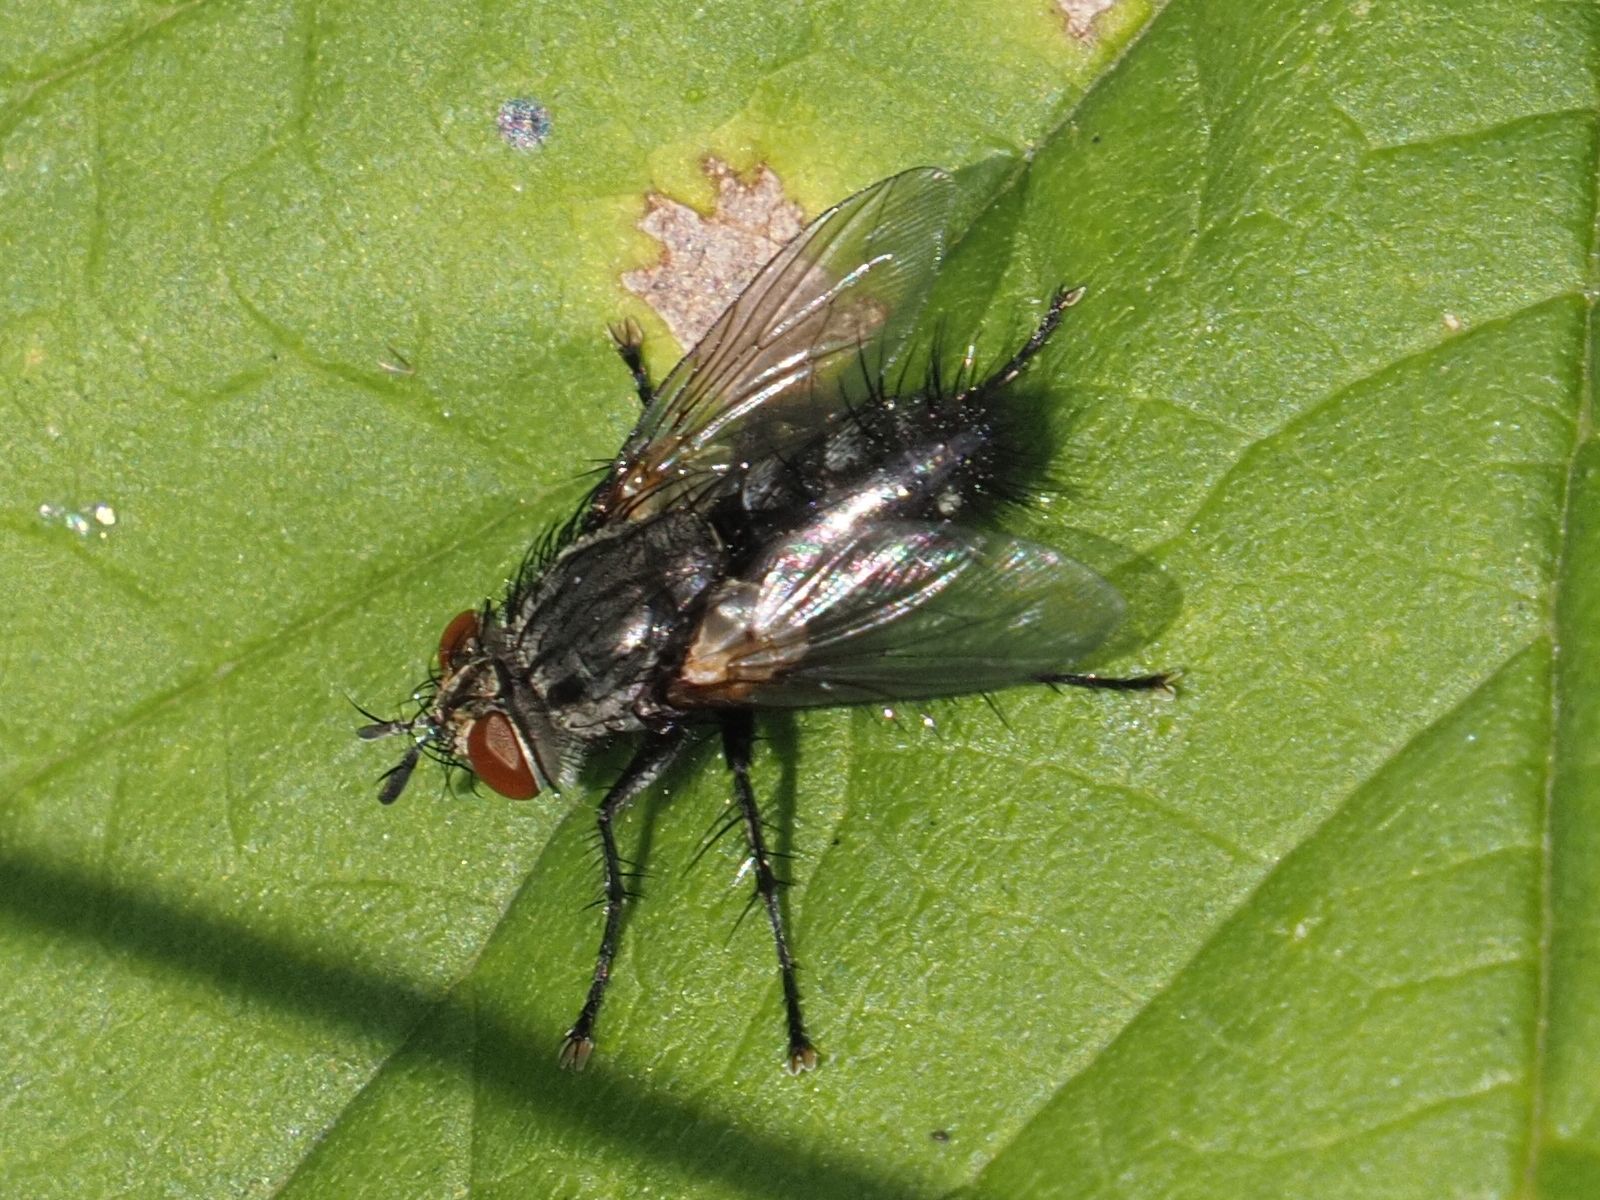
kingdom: Animalia
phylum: Arthropoda
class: Insecta
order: Diptera
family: Tachinidae
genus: Voria
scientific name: Voria ruralis
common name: Parasitic fly
